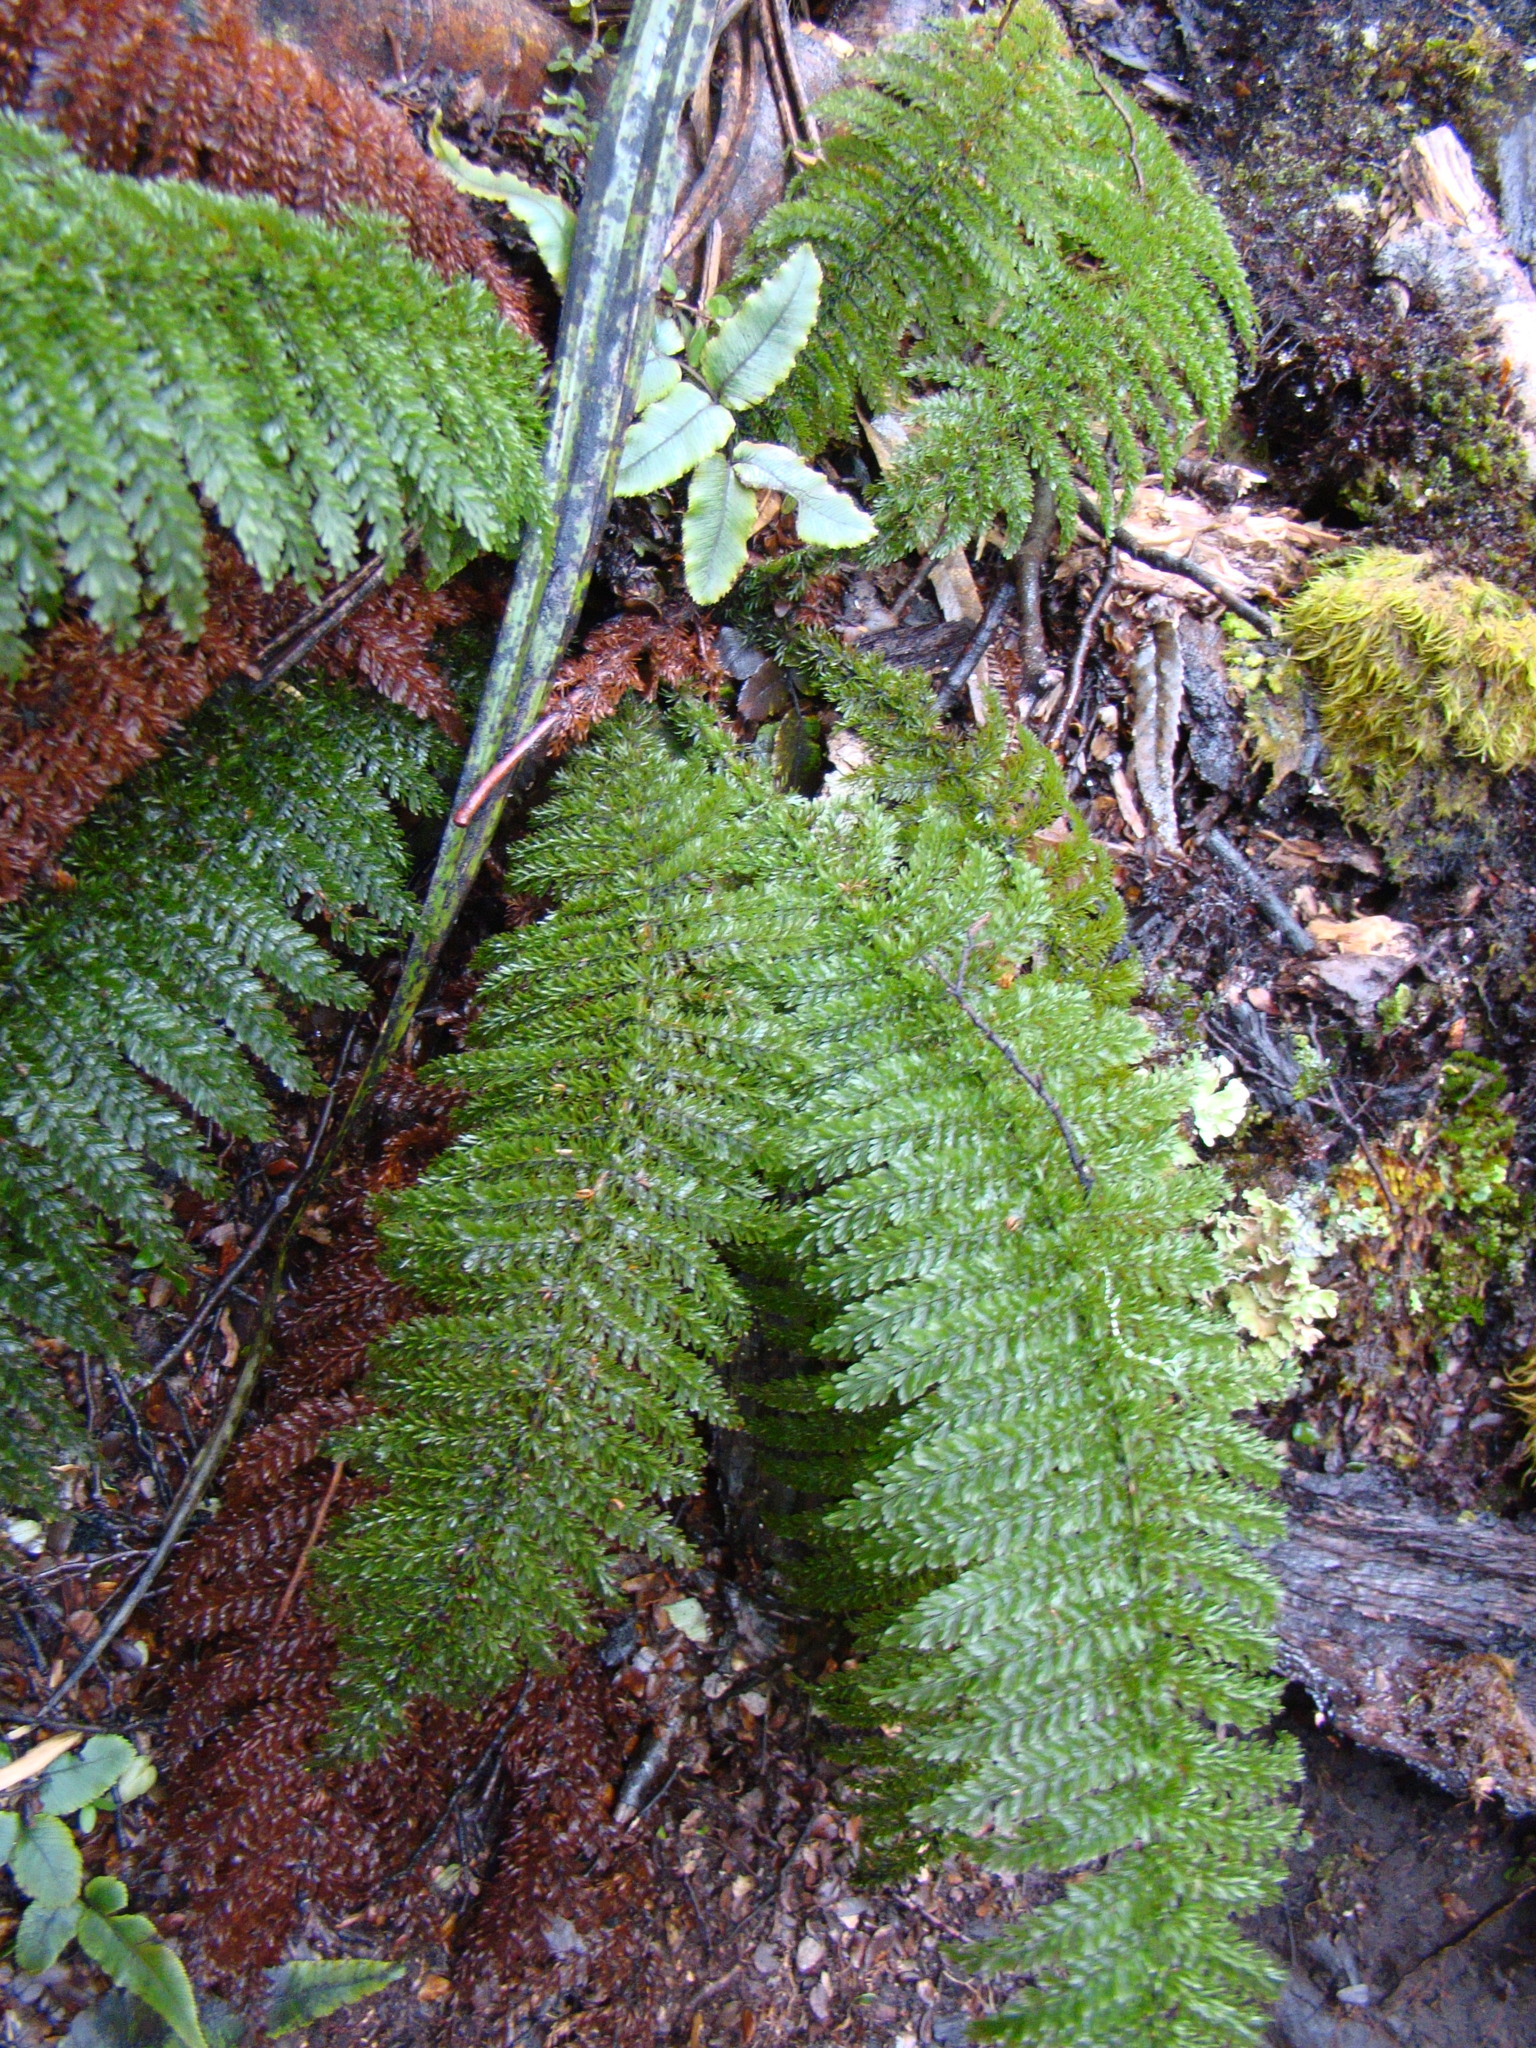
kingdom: Plantae
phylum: Tracheophyta
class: Polypodiopsida
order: Osmundales
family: Osmundaceae
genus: Leptopteris
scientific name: Leptopteris superba
